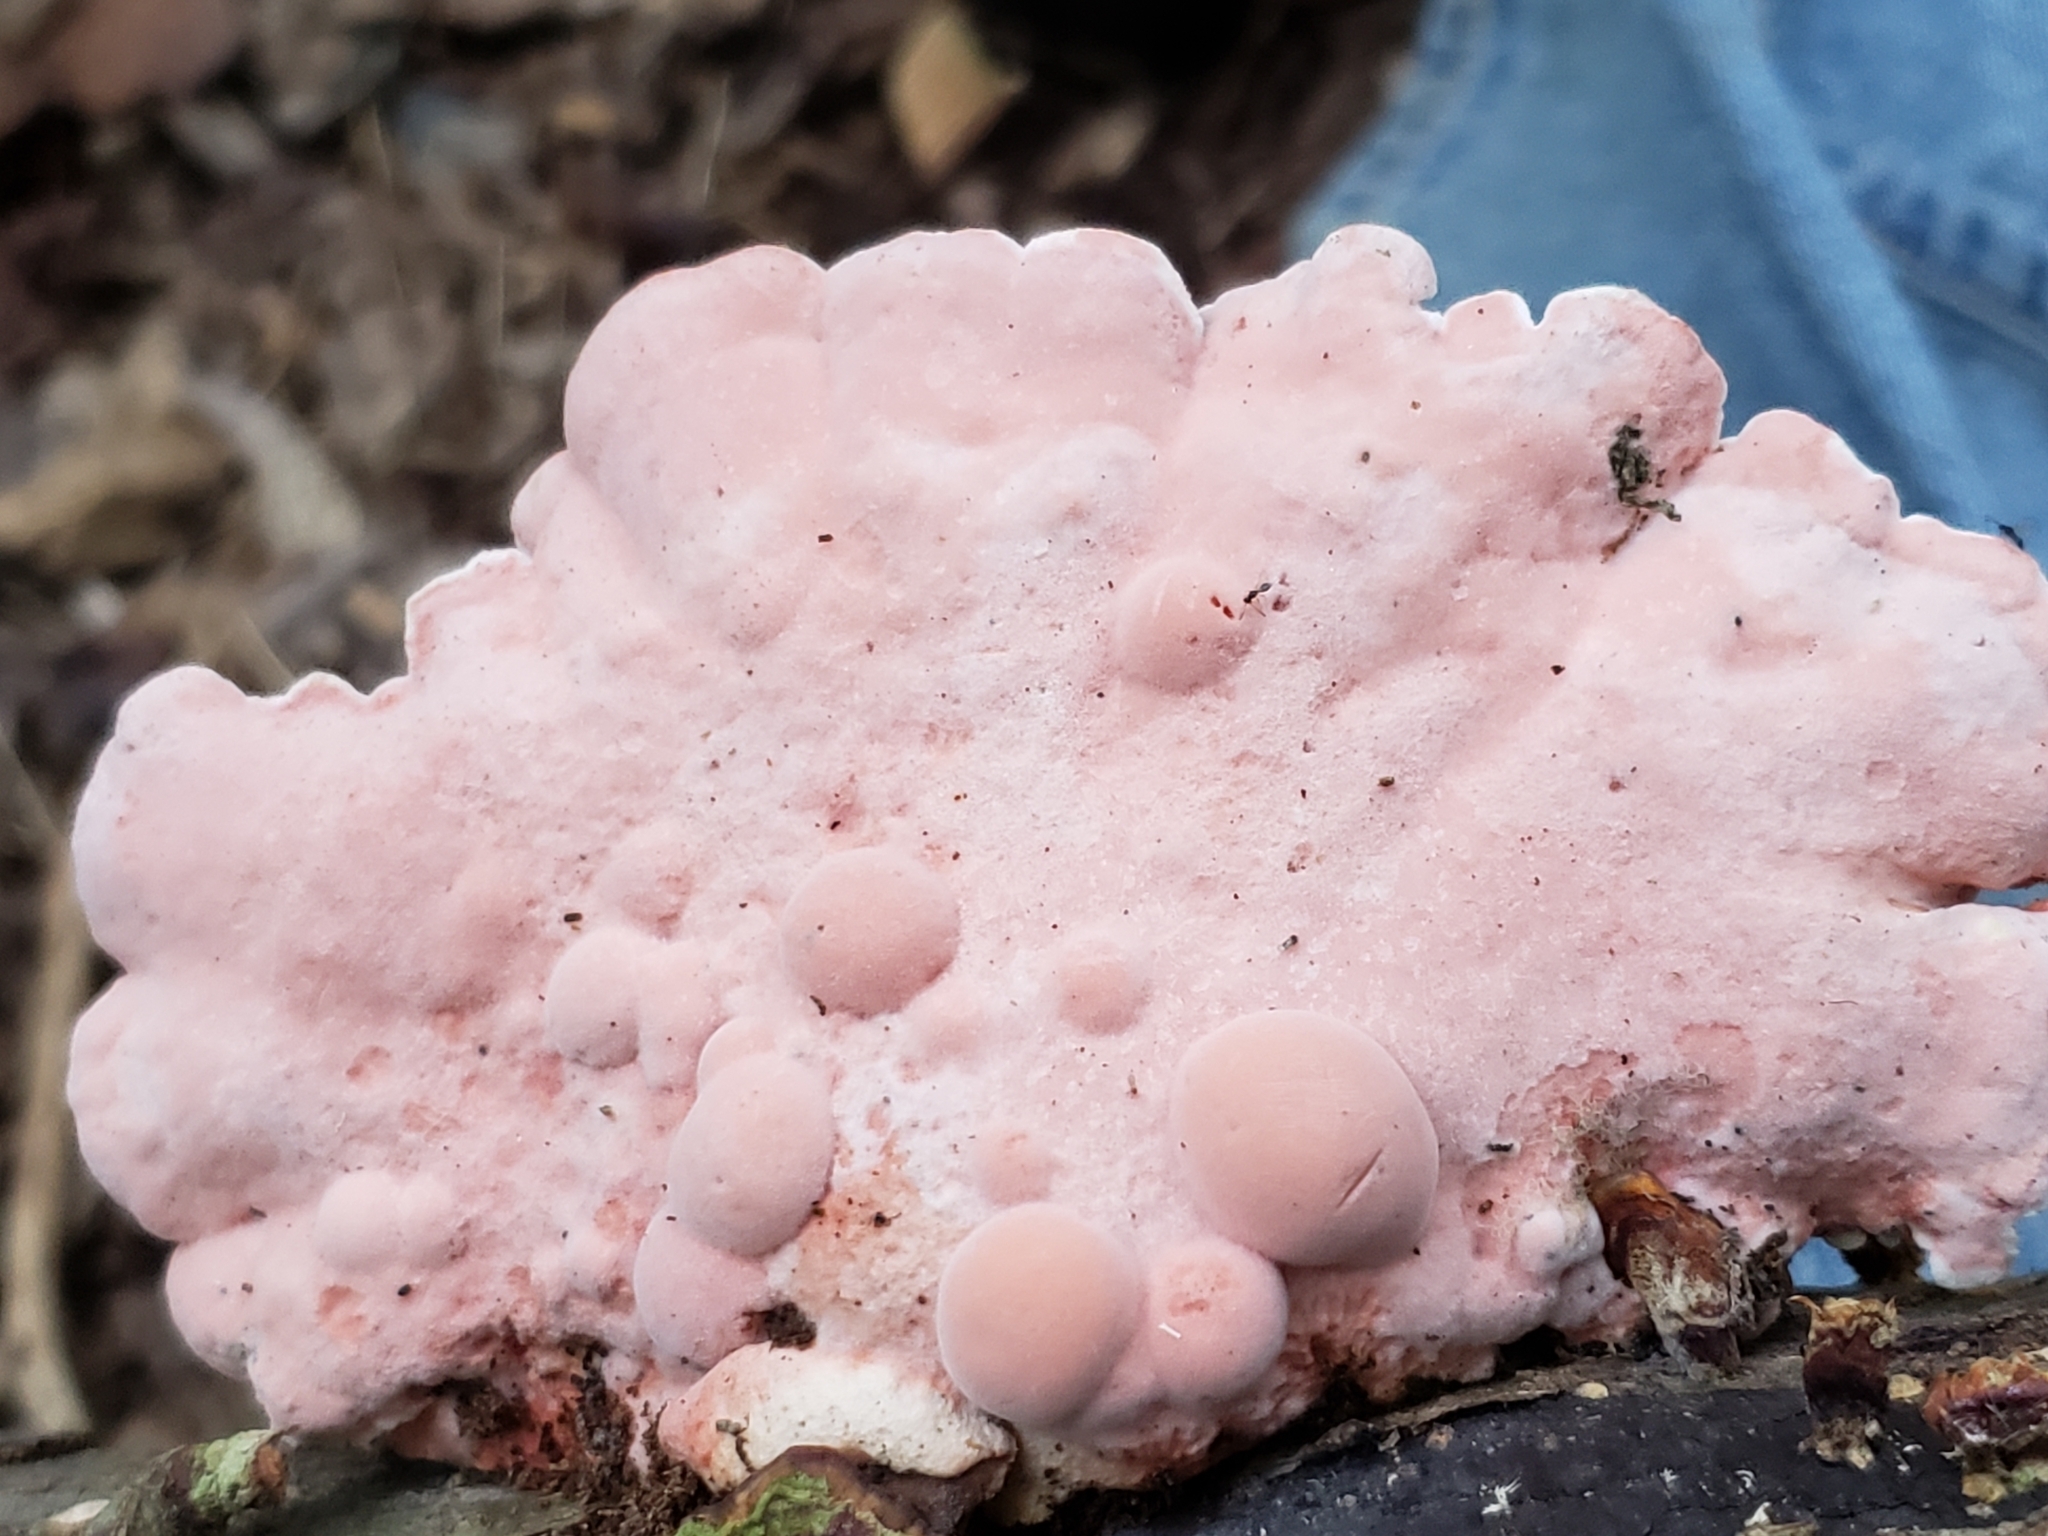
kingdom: Fungi
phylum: Basidiomycota
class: Agaricomycetes
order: Polyporales
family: Irpicaceae
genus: Byssomerulius
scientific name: Byssomerulius incarnatus
